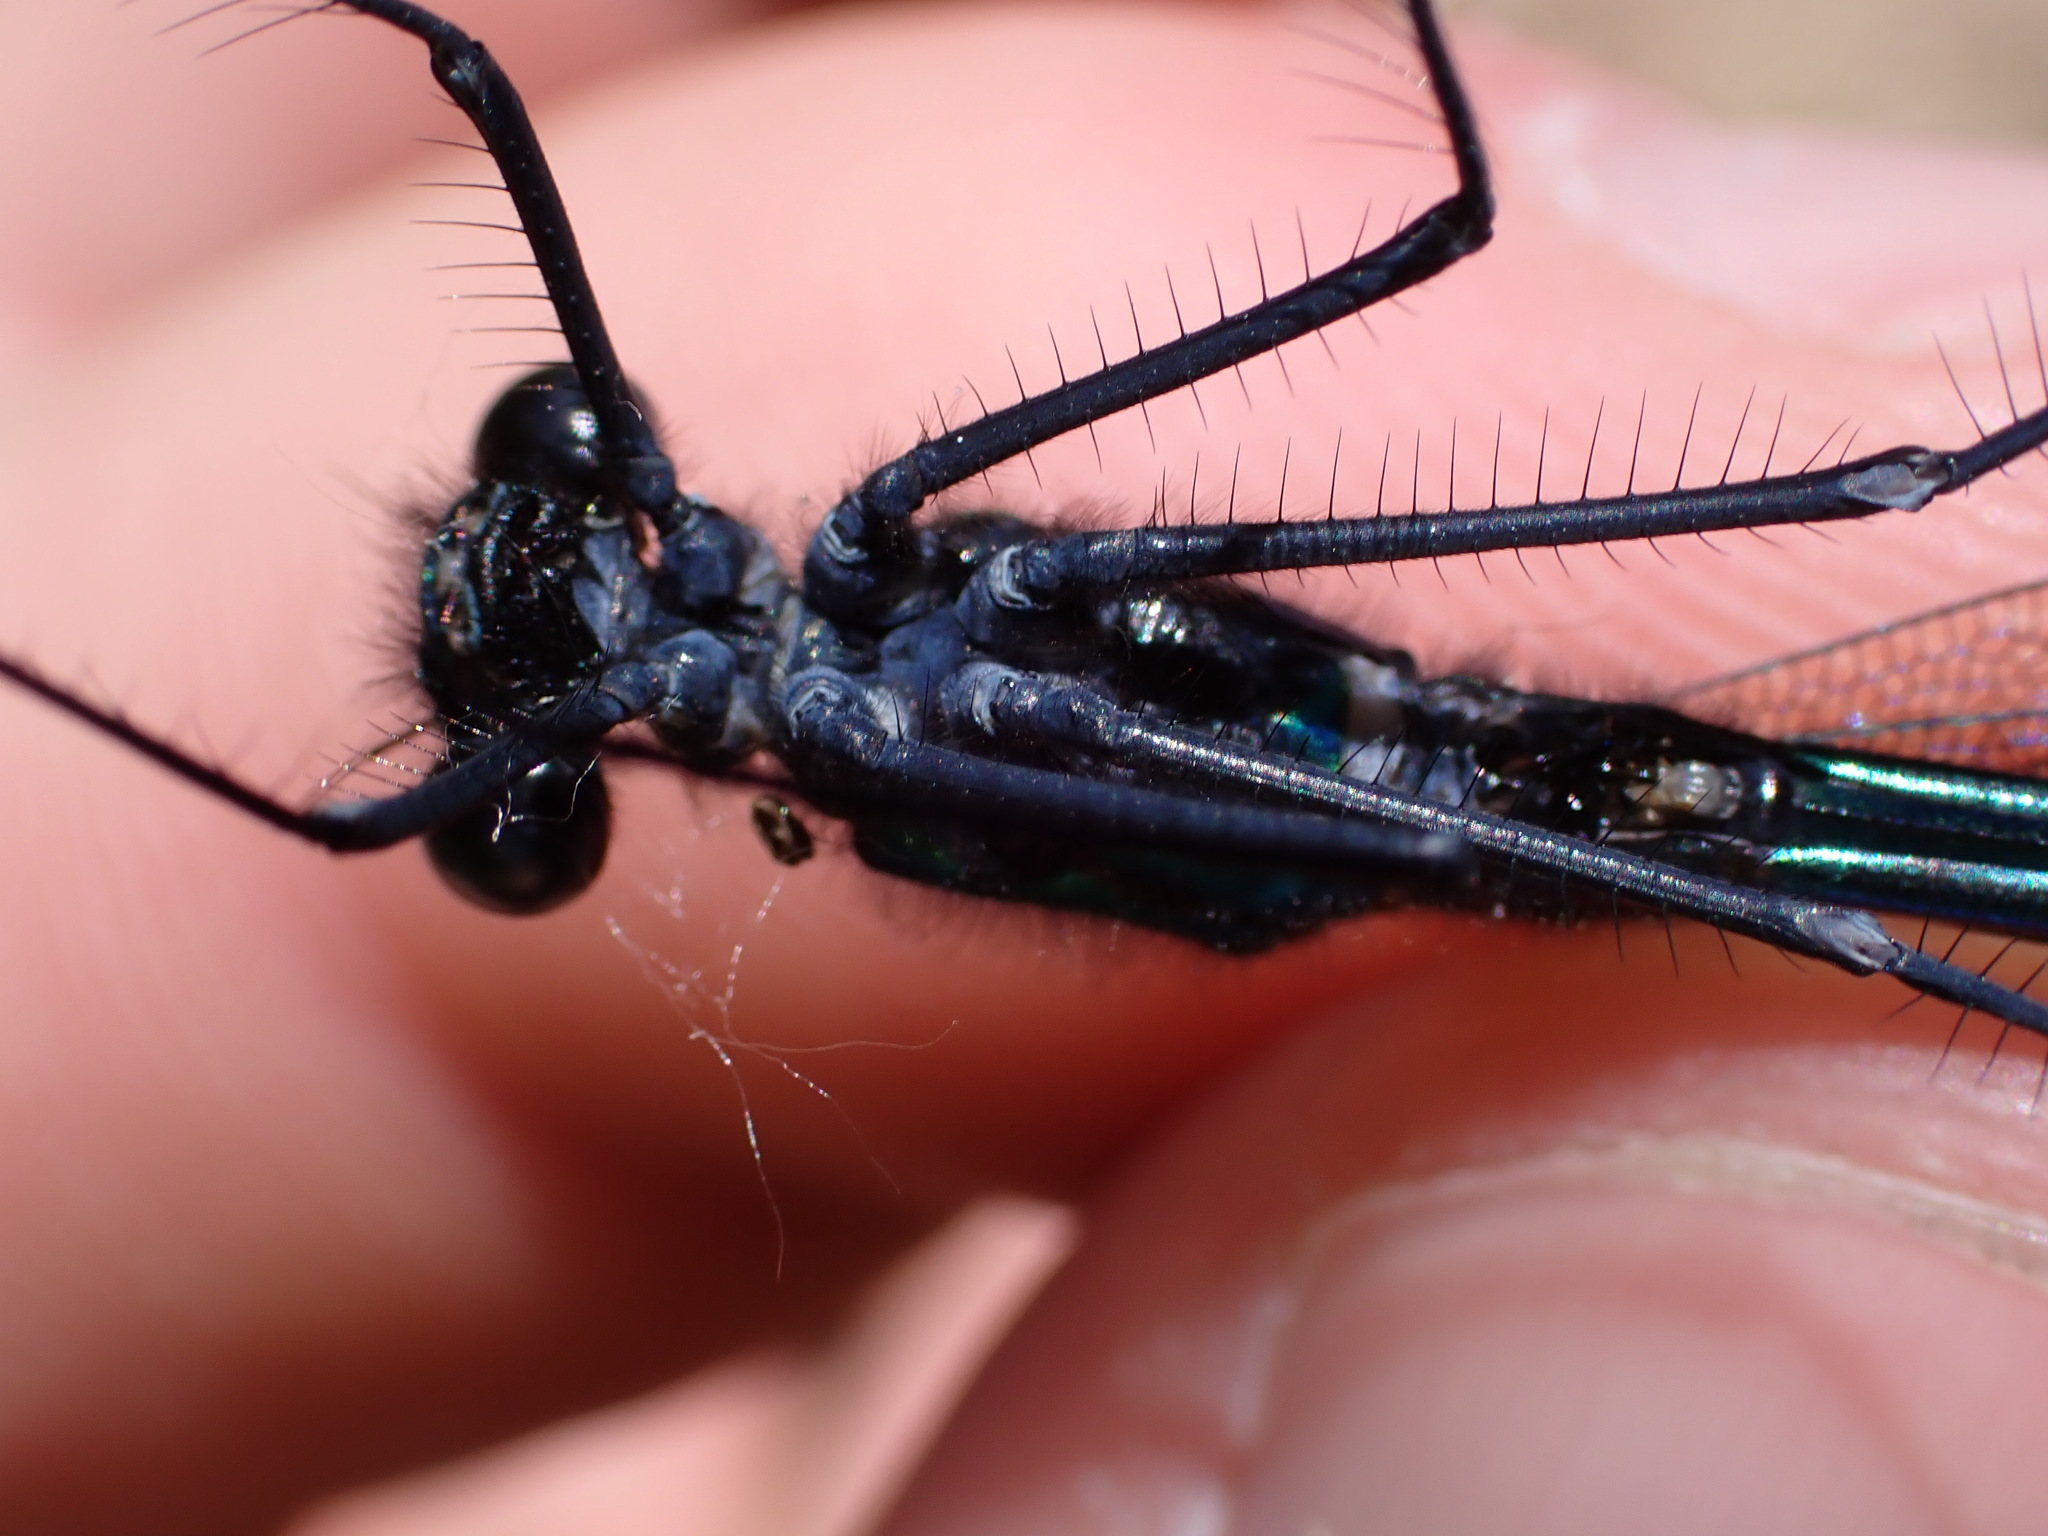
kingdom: Animalia
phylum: Arthropoda
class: Insecta
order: Odonata
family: Calopterygidae
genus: Calopteryx
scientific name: Calopteryx splendens
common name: Banded demoiselle
